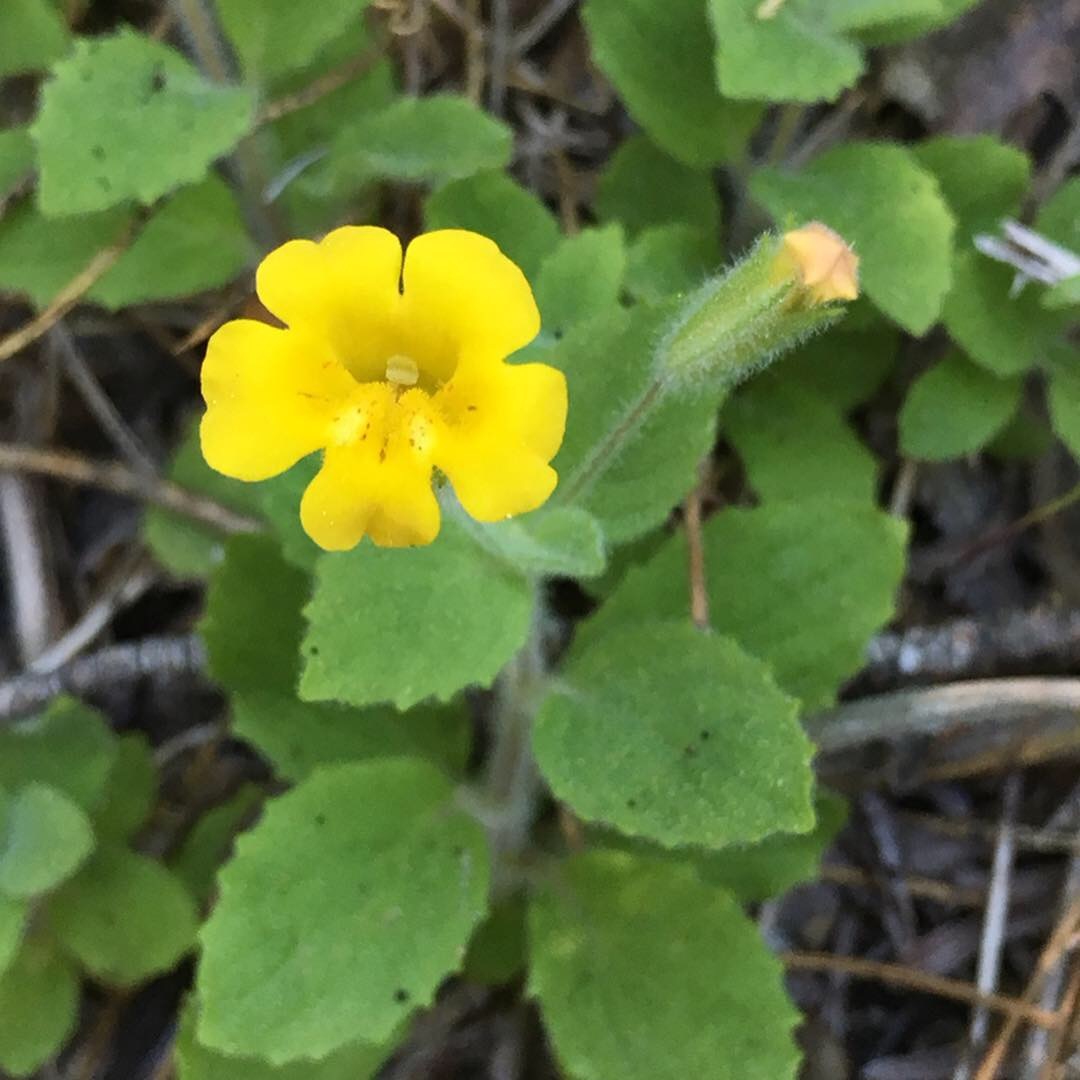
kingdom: Plantae
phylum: Tracheophyta
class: Magnoliopsida
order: Lamiales
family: Phrymaceae
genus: Erythranthe
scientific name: Erythranthe moschata
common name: Muskflower
